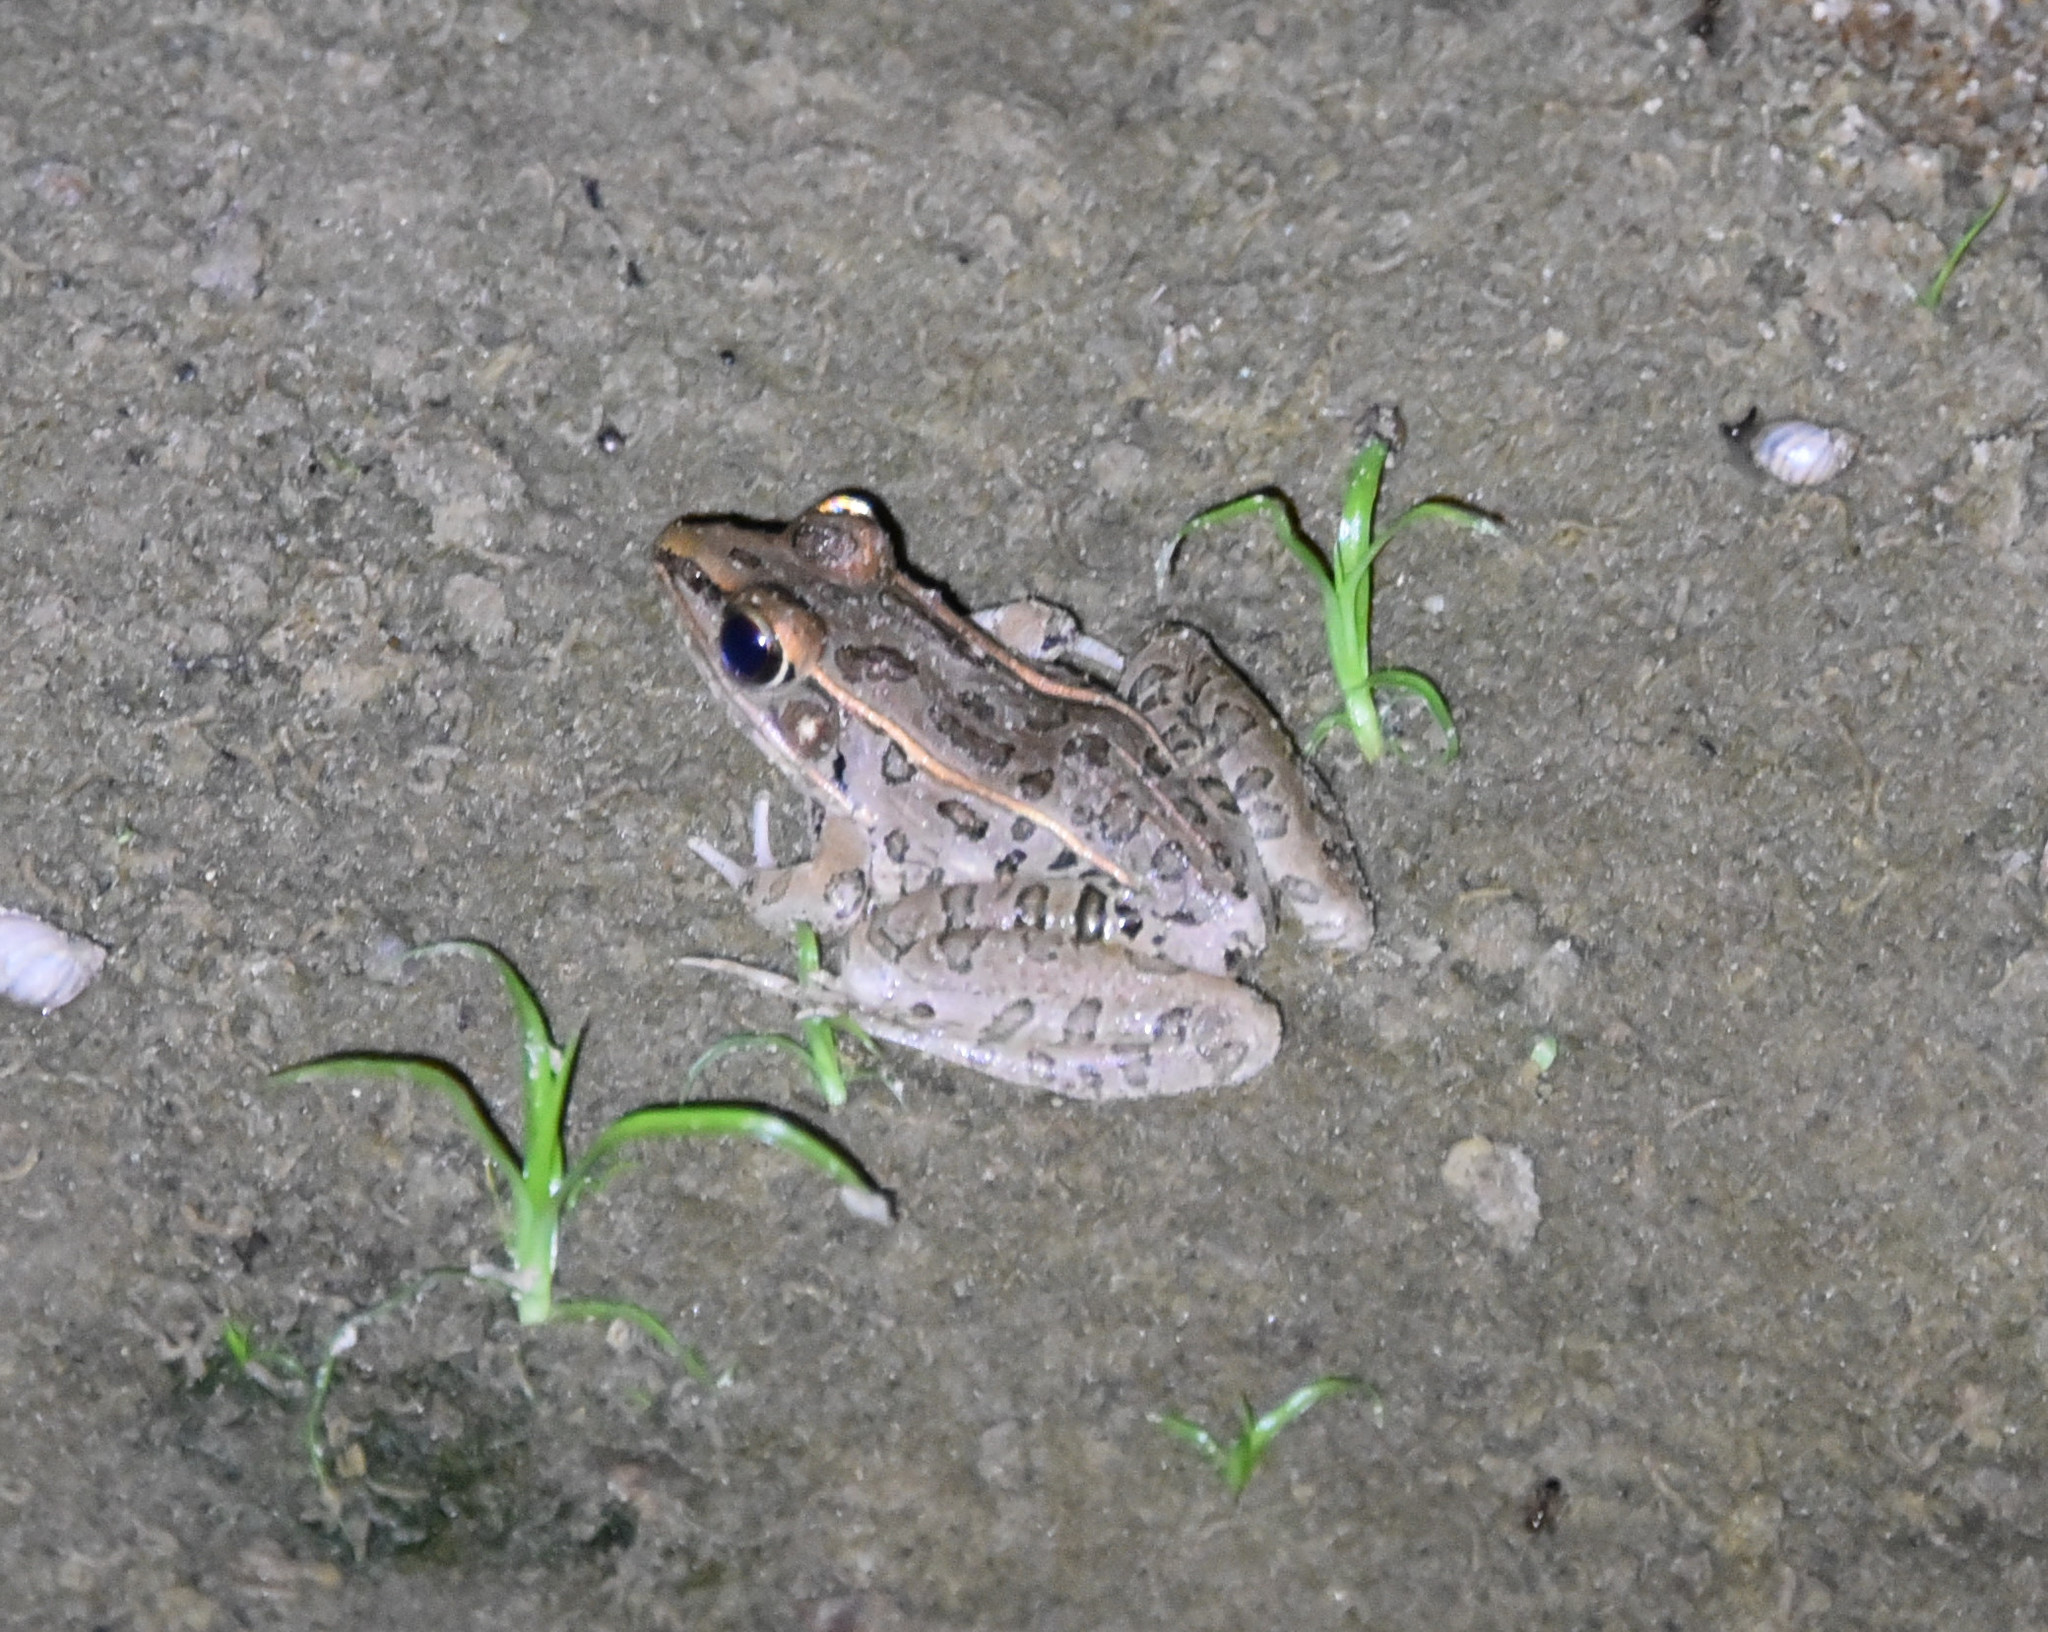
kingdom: Animalia
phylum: Chordata
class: Amphibia
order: Anura
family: Ranidae
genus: Lithobates
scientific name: Lithobates sphenocephalus
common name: Southern leopard frog
